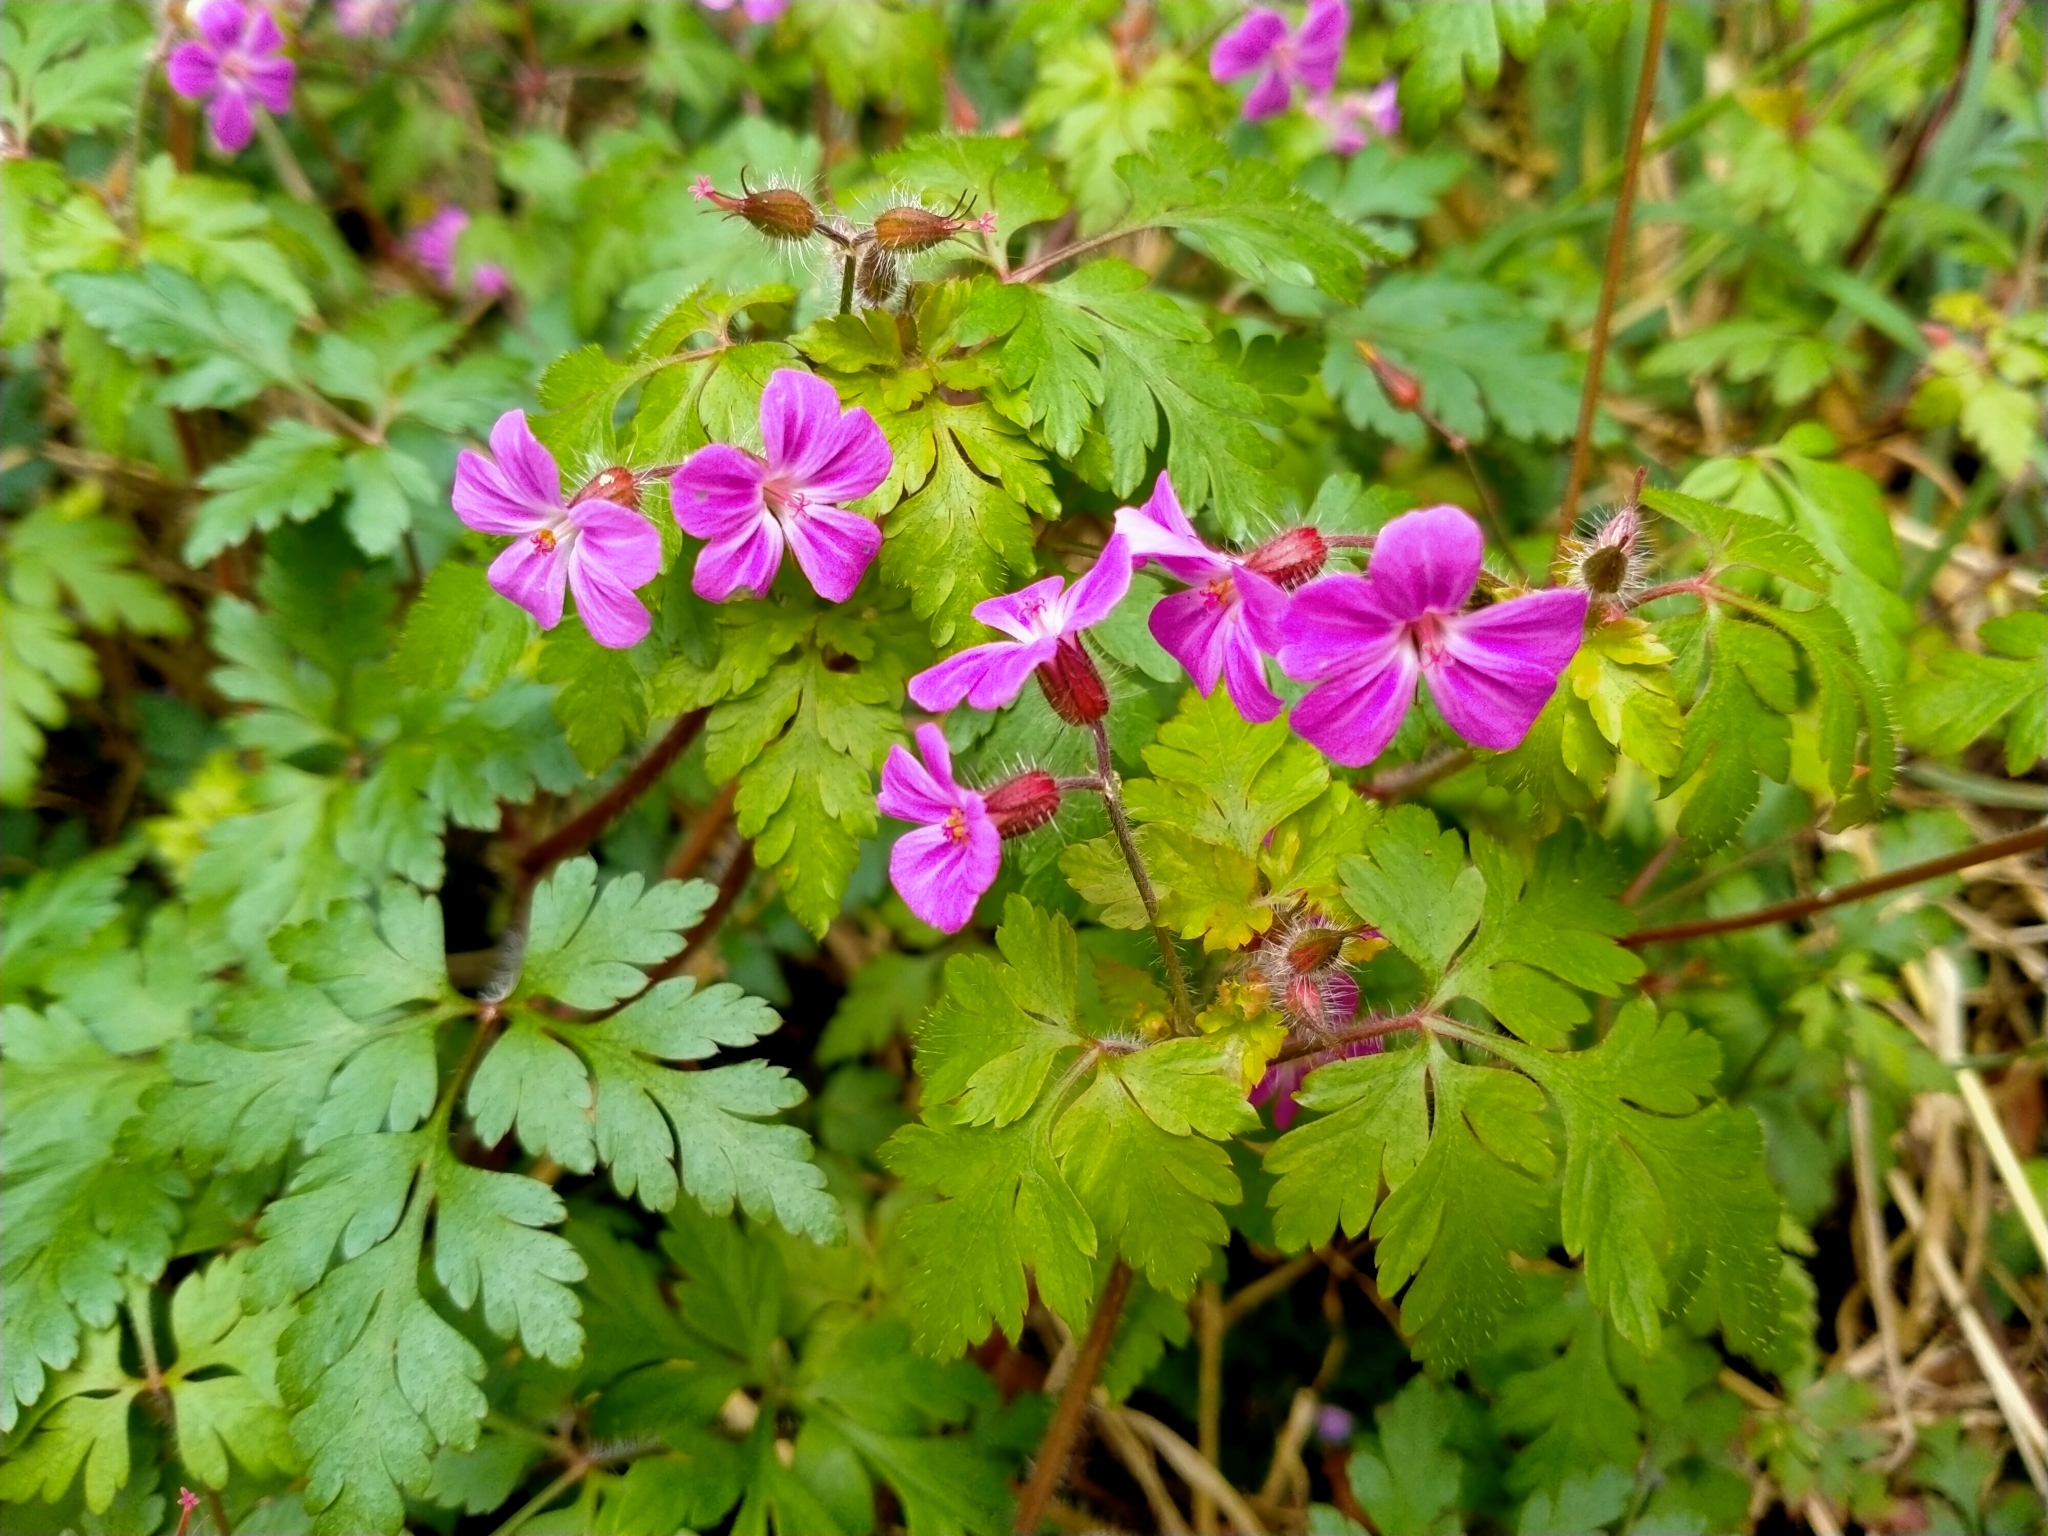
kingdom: Plantae
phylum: Tracheophyta
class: Magnoliopsida
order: Geraniales
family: Geraniaceae
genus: Geranium
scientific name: Geranium robertianum
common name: Herb-robert
